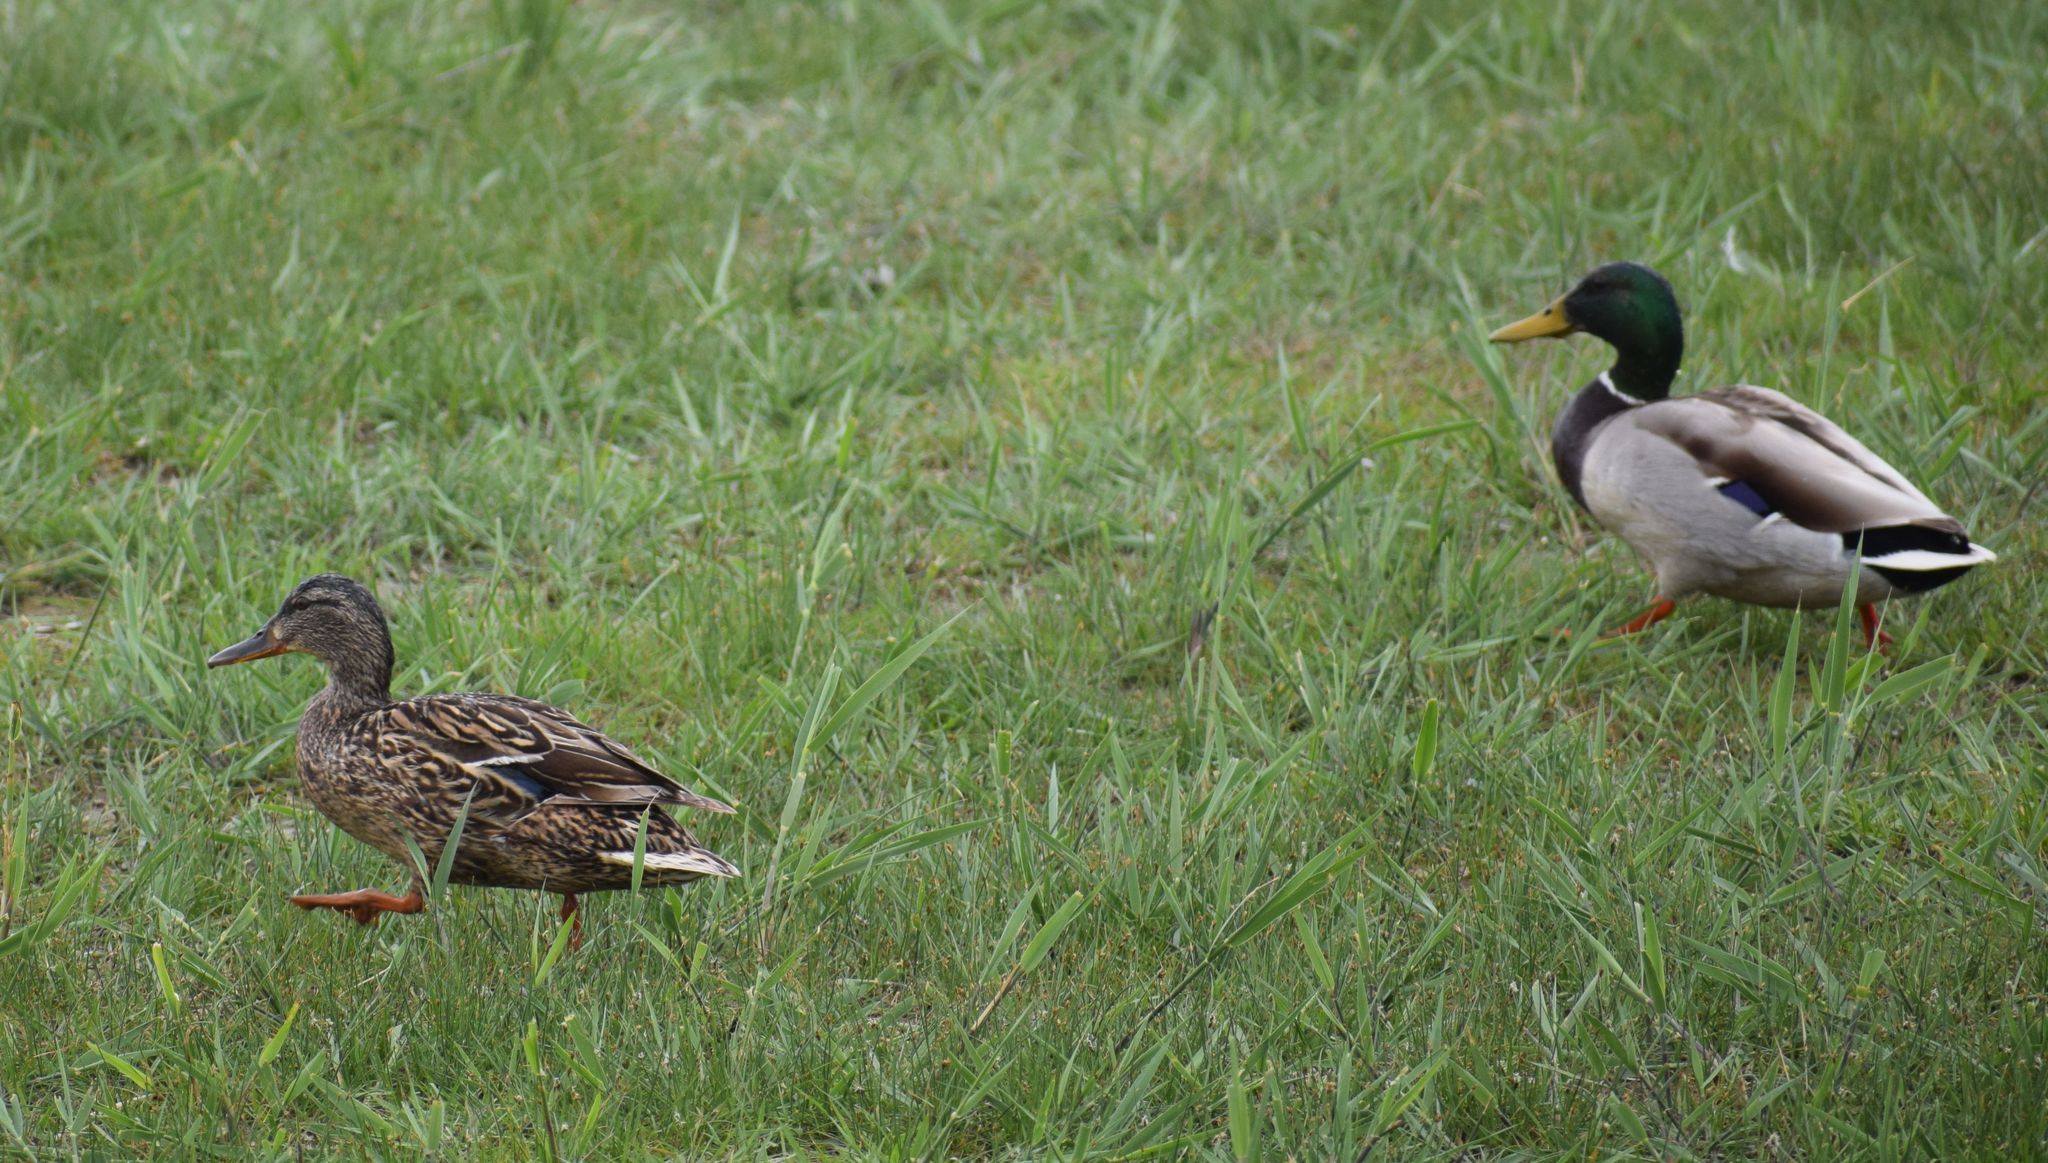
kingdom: Animalia
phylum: Chordata
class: Aves
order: Anseriformes
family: Anatidae
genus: Anas
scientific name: Anas platyrhynchos
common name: Mallard
